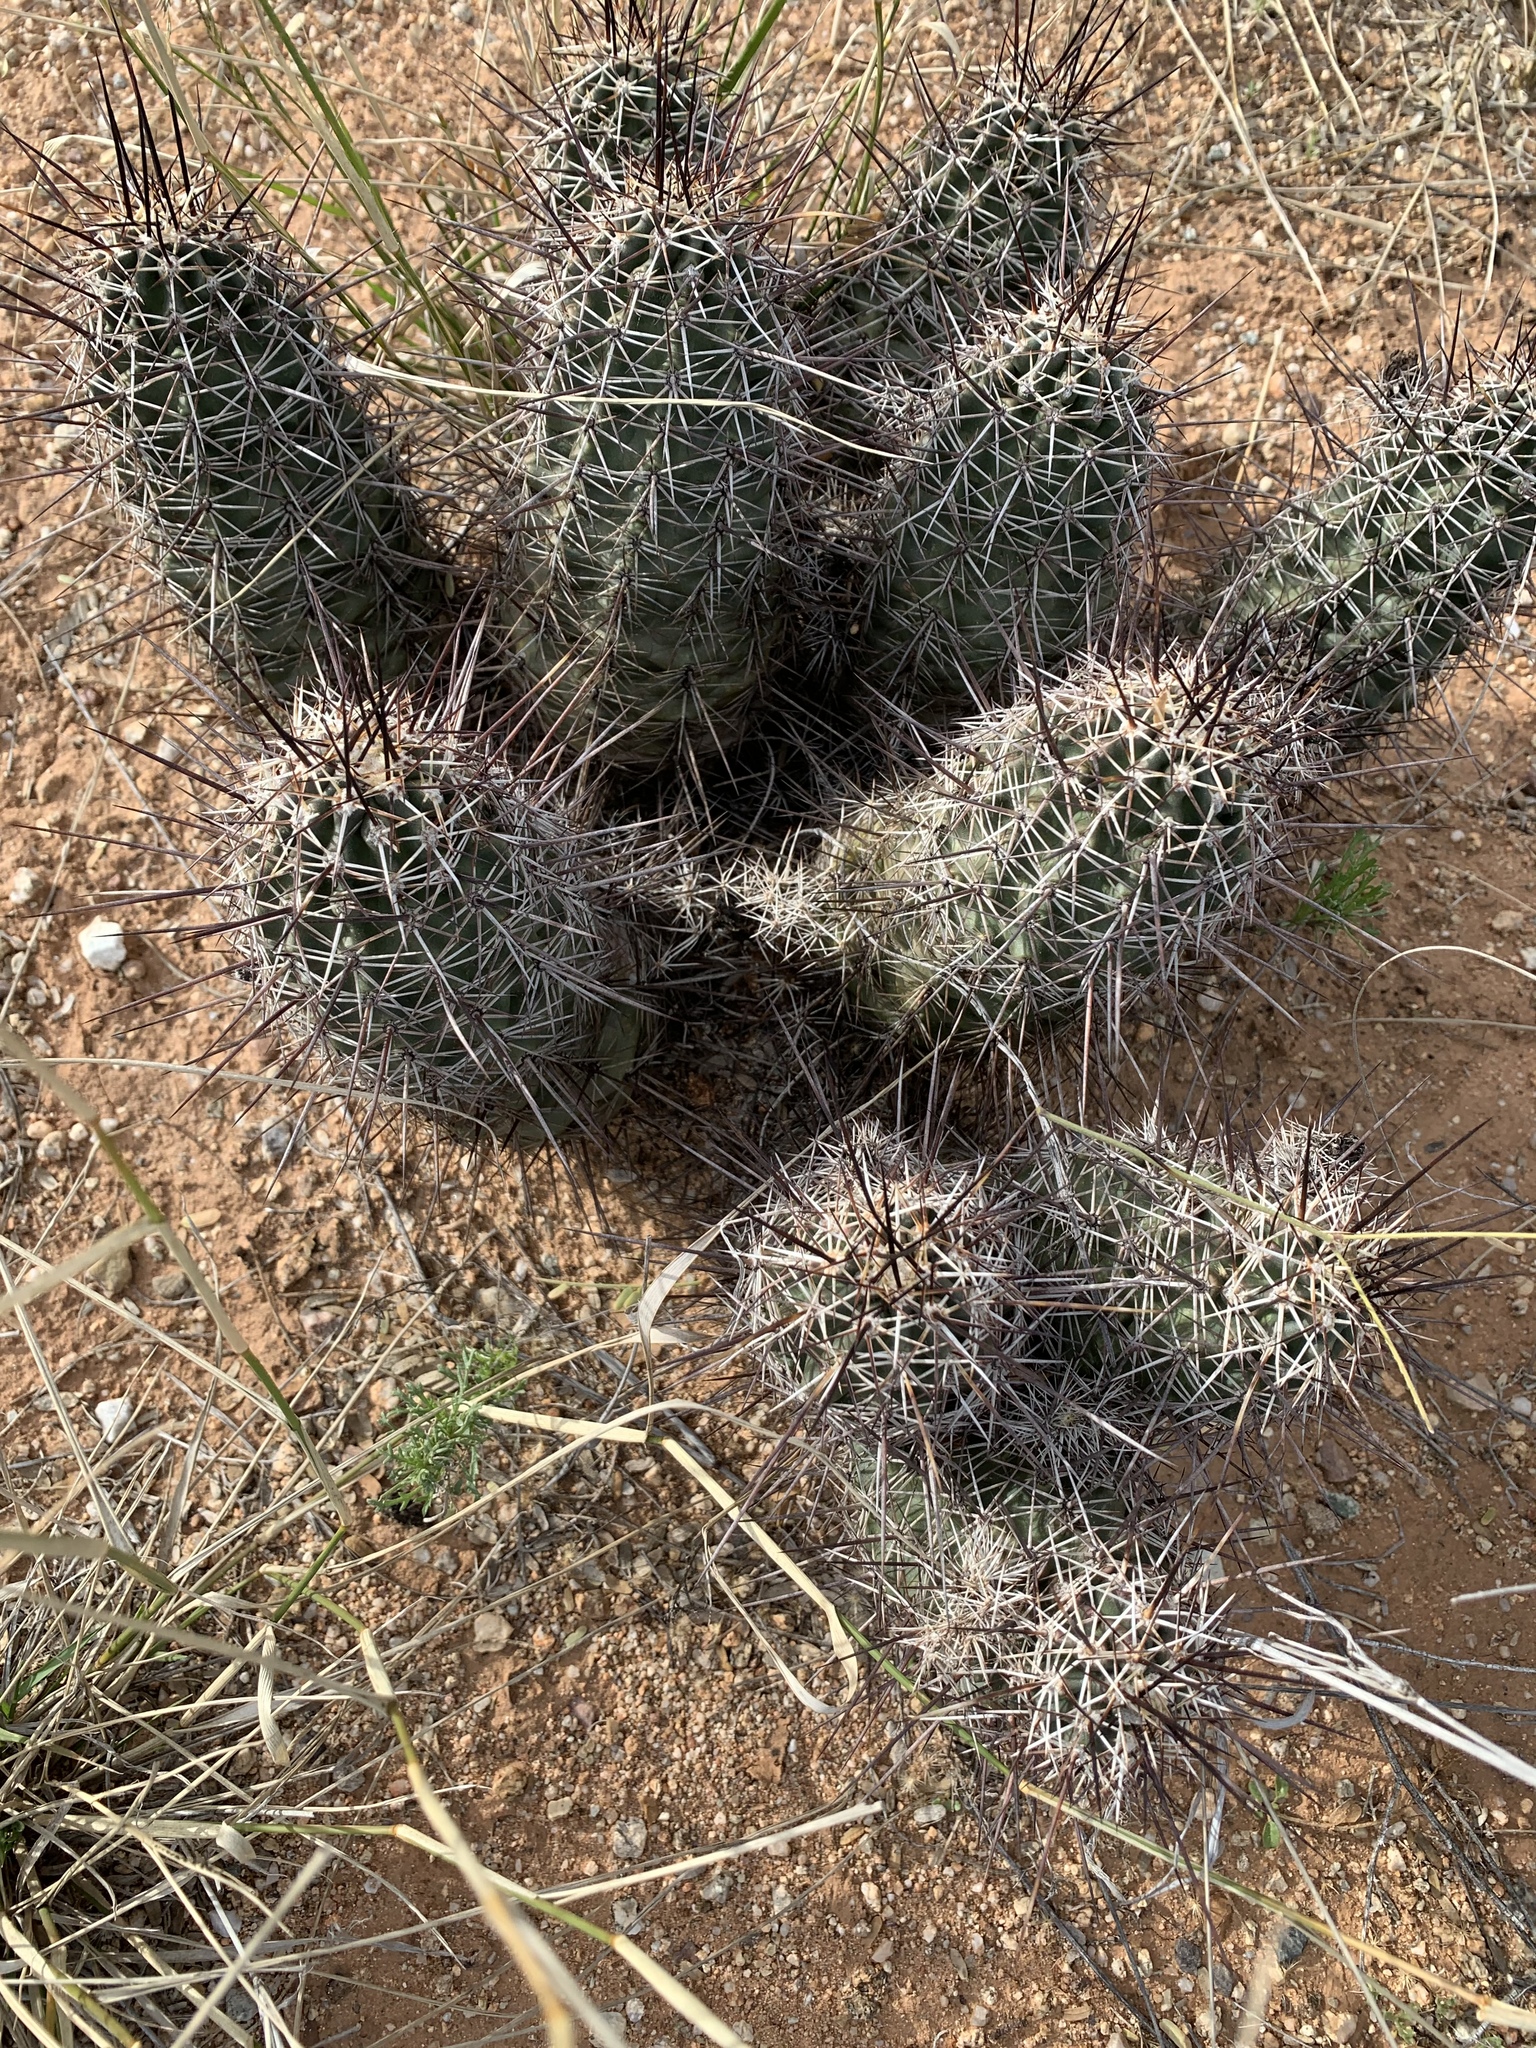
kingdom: Plantae
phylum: Tracheophyta
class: Magnoliopsida
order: Caryophyllales
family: Cactaceae
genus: Echinocereus
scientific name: Echinocereus fasciculatus
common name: Bundle hedgehog
